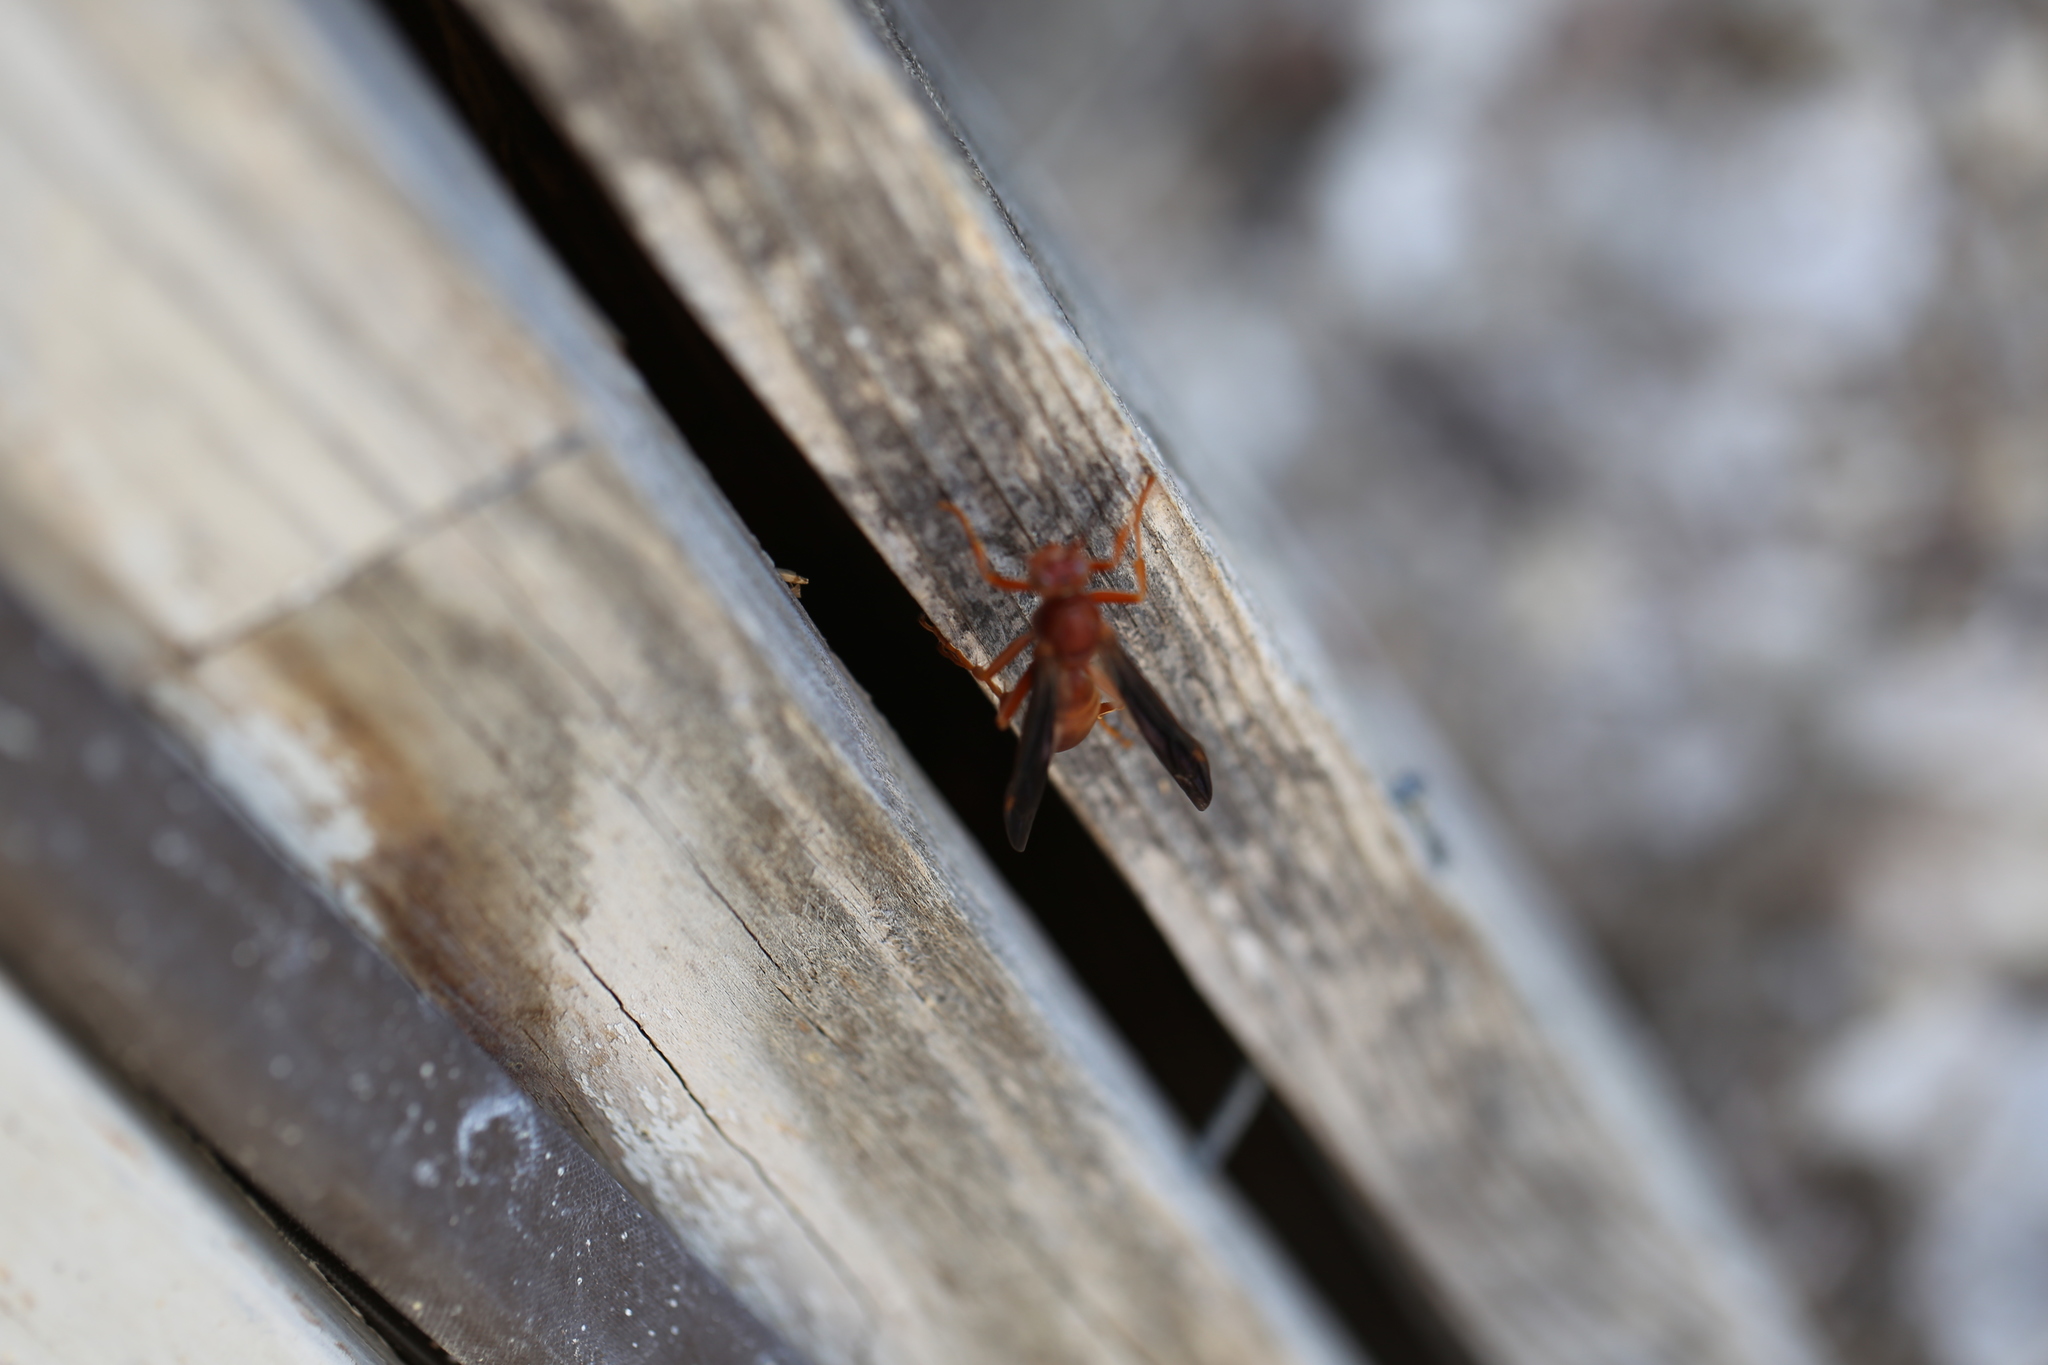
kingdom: Animalia
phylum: Arthropoda
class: Insecta
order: Hymenoptera
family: Vespidae
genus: Fuscopolistes
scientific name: Fuscopolistes
